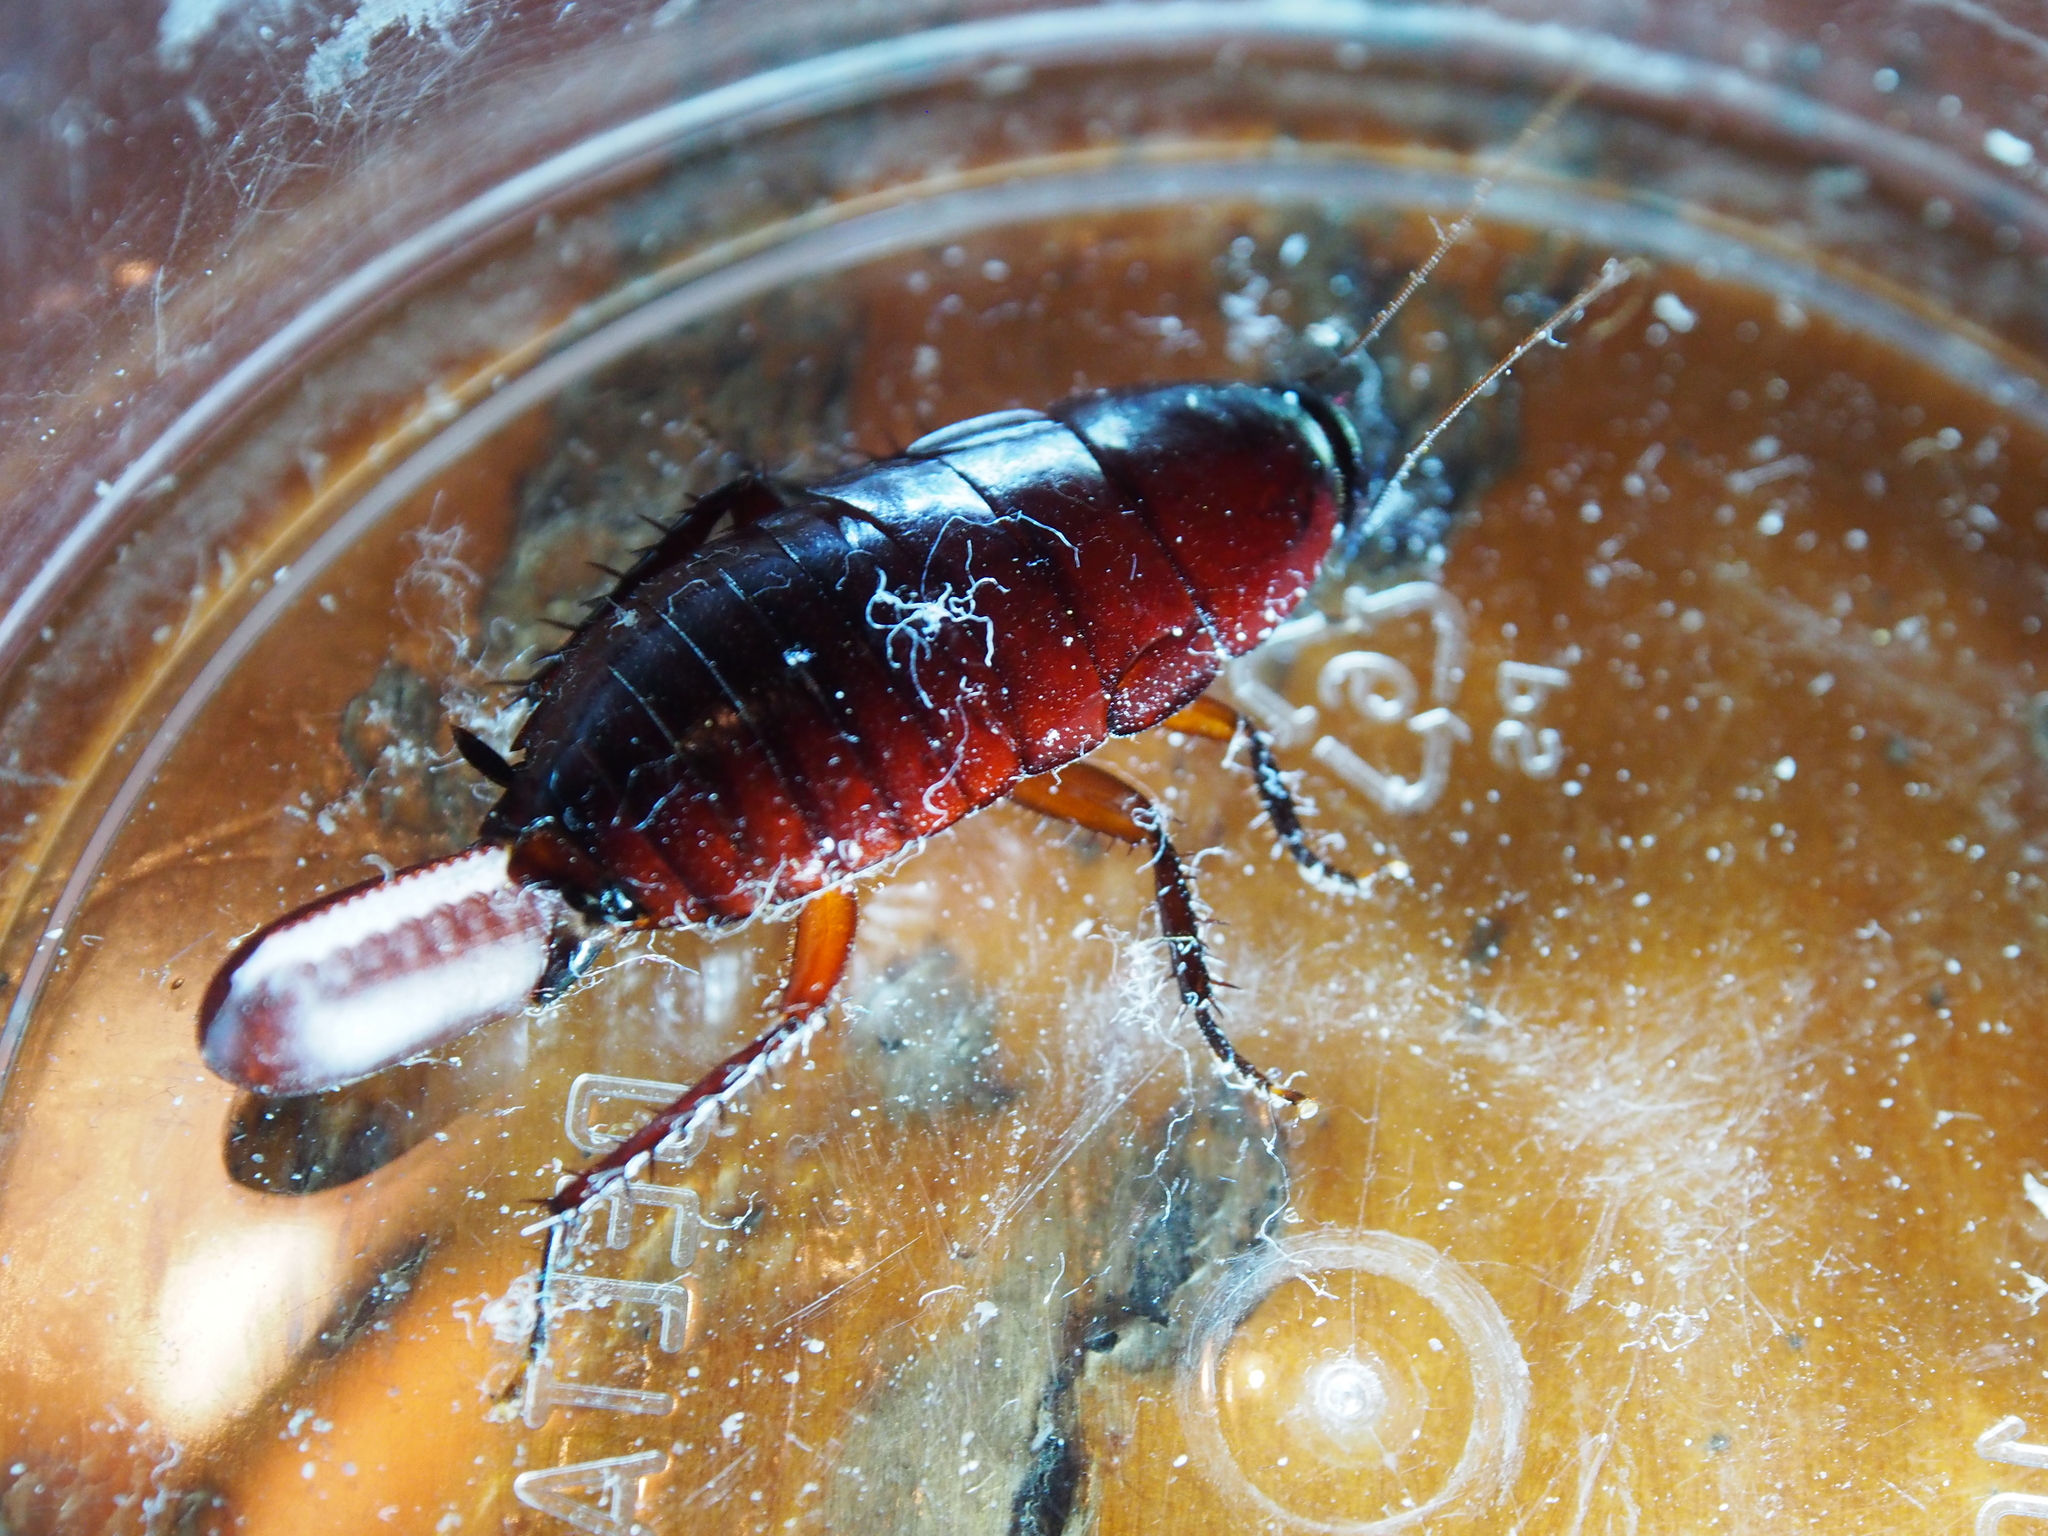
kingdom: Animalia
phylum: Arthropoda
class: Insecta
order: Blattodea
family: Blattidae
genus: Eurycotis
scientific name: Eurycotis biolleyi
